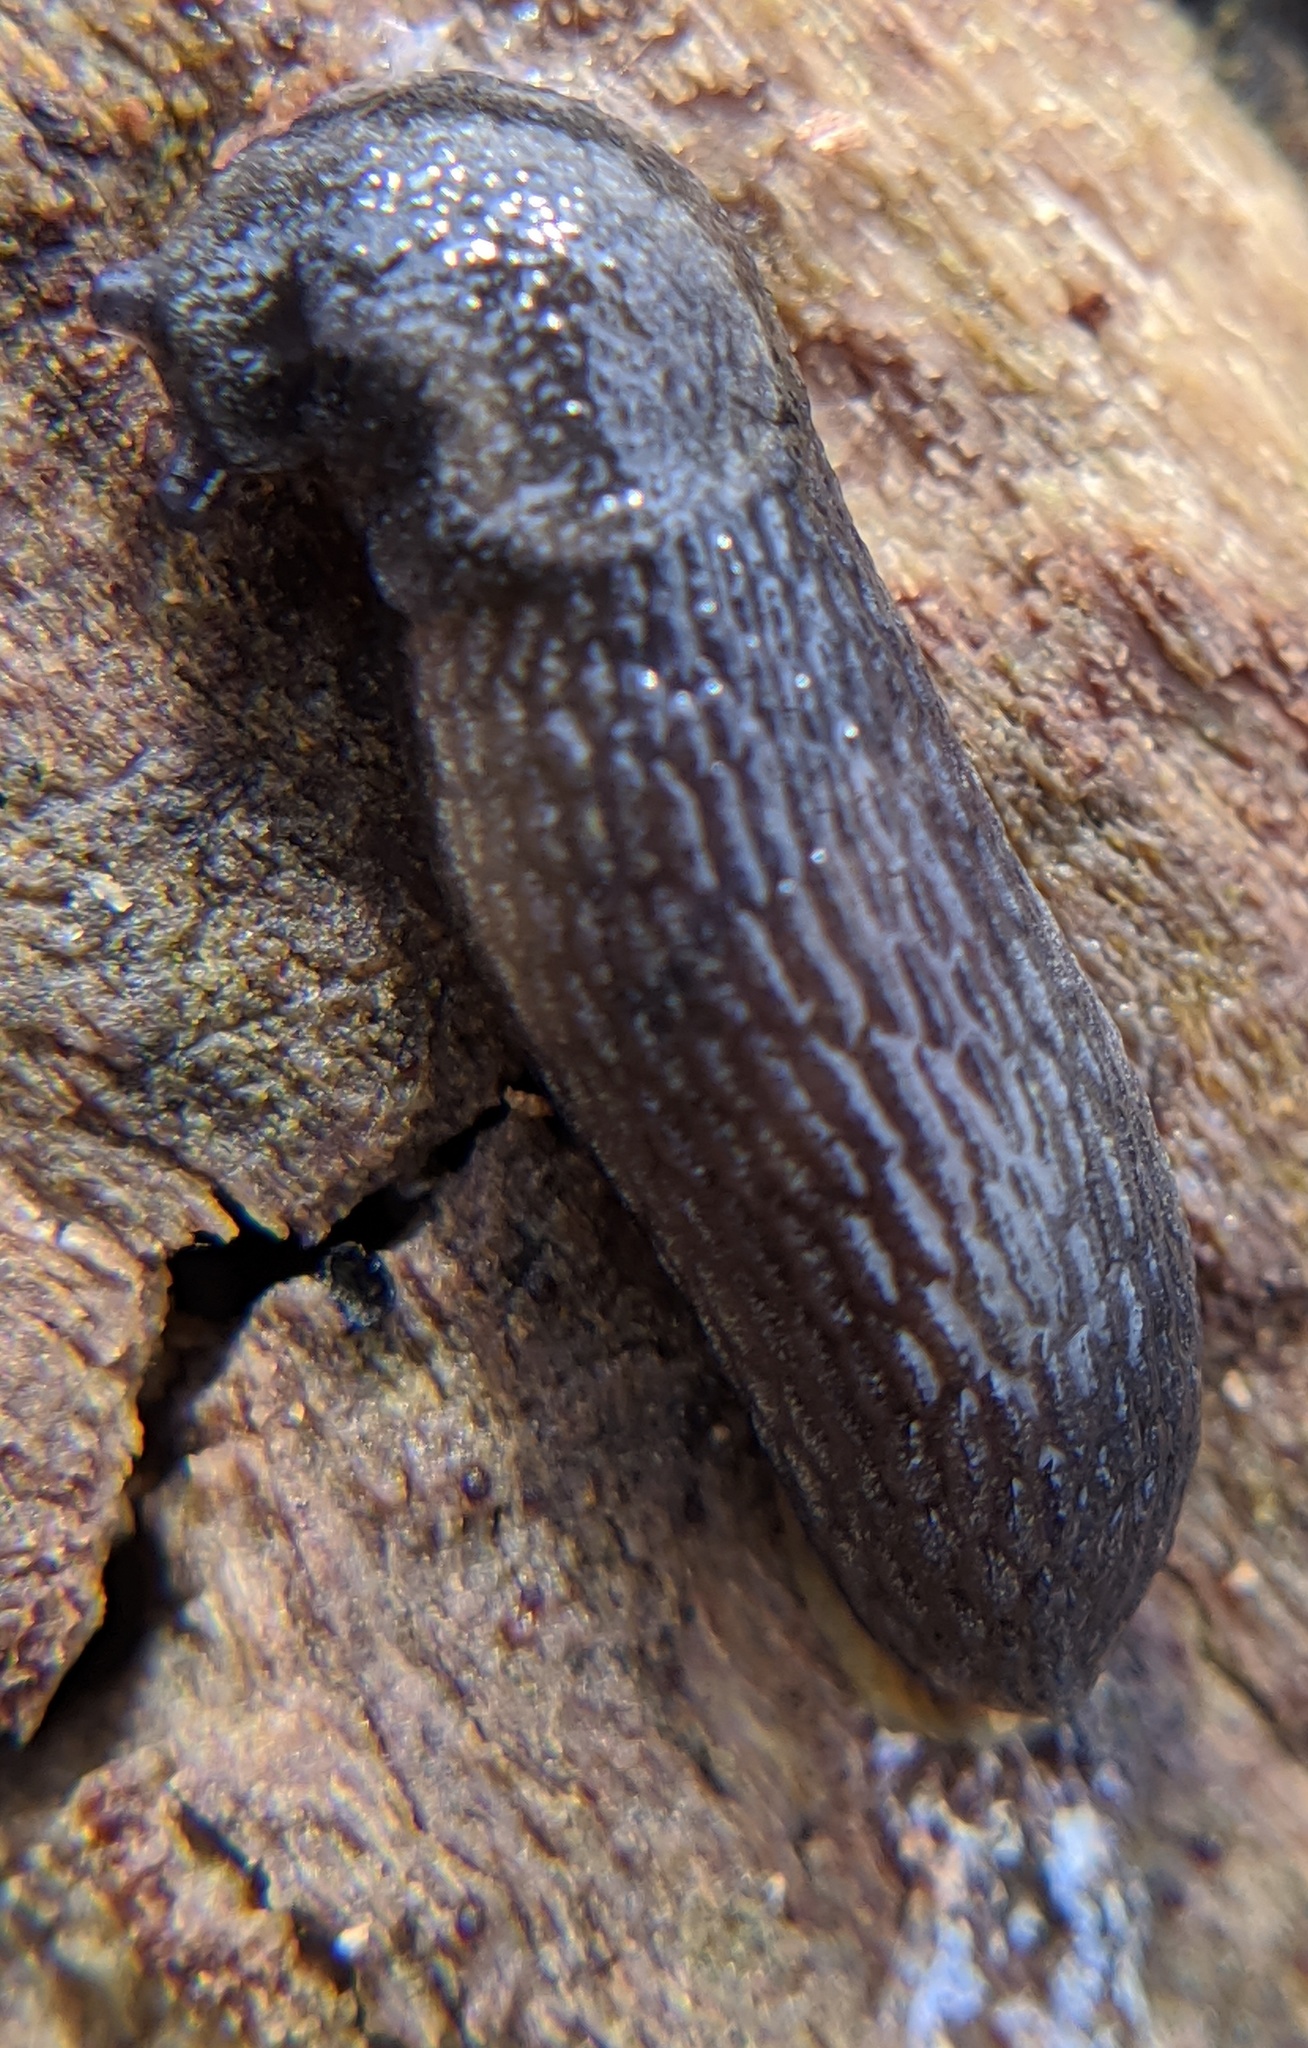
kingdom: Animalia
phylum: Mollusca
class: Gastropoda
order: Stylommatophora
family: Arionidae
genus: Arion
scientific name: Arion hortensis
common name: Garden arion
